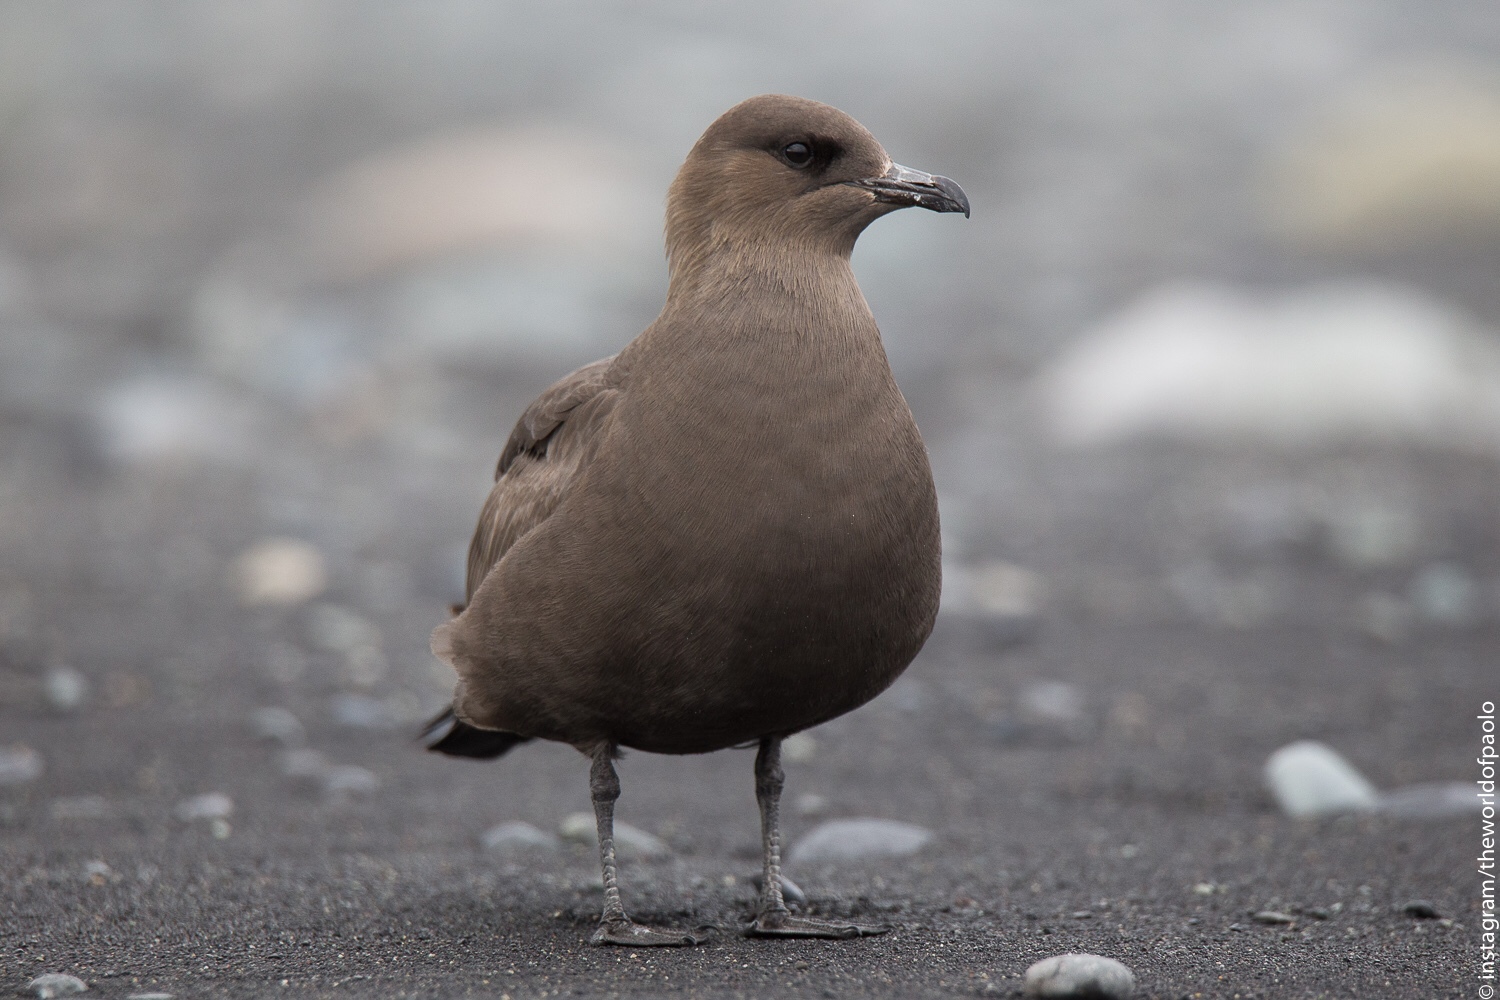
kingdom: Animalia
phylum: Chordata
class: Aves
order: Charadriiformes
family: Stercorariidae
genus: Stercorarius
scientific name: Stercorarius parasiticus
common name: Parasitic jaeger
